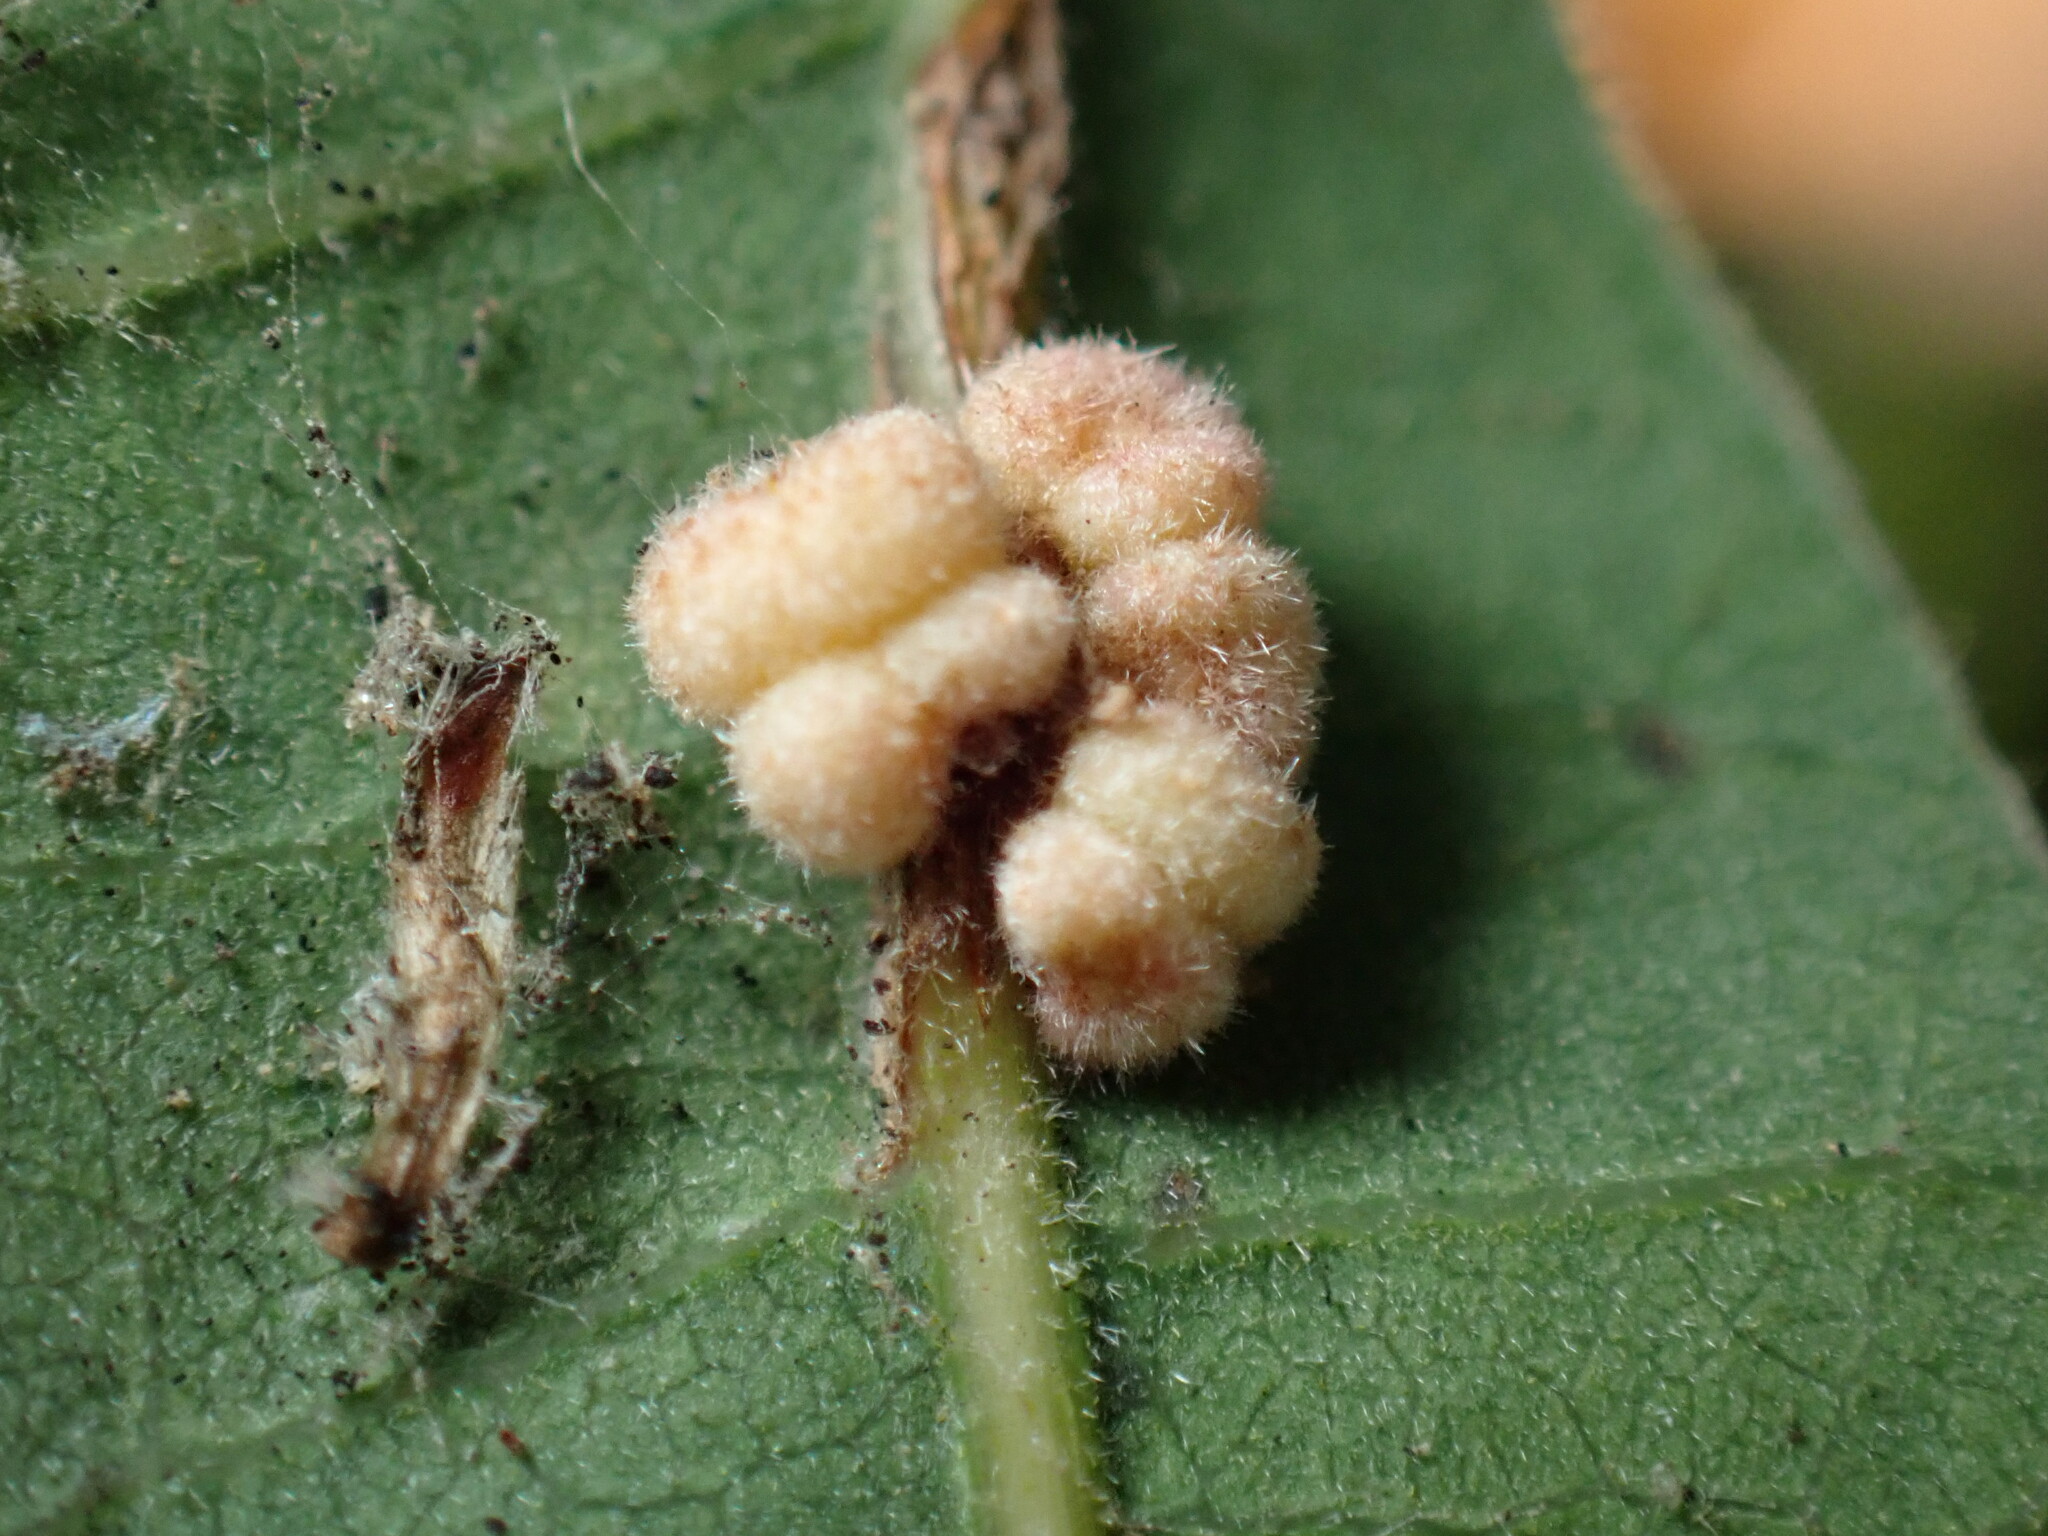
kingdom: Animalia
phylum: Arthropoda
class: Insecta
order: Hymenoptera
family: Cynipidae
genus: Andricus
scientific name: Andricus
